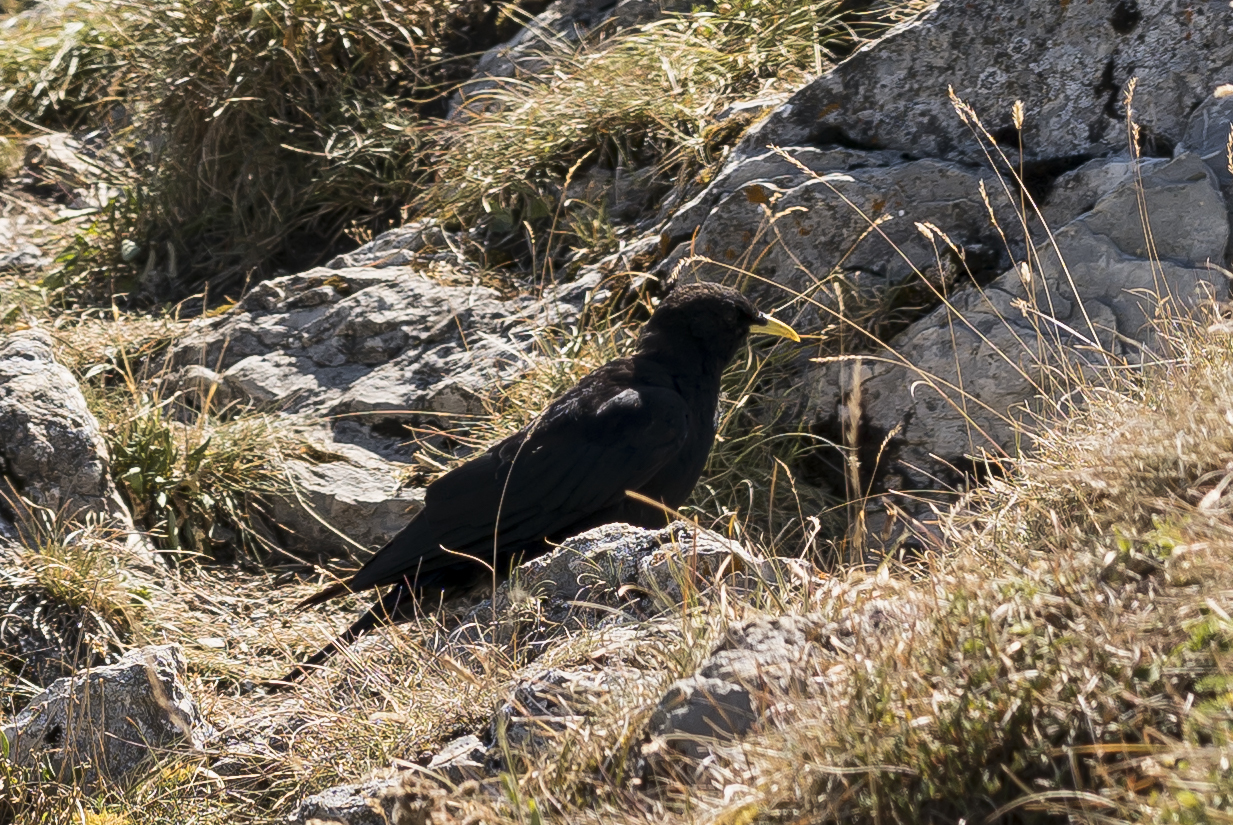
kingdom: Animalia
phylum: Chordata
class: Aves
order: Passeriformes
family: Corvidae
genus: Pyrrhocorax
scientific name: Pyrrhocorax graculus
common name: Alpine chough
